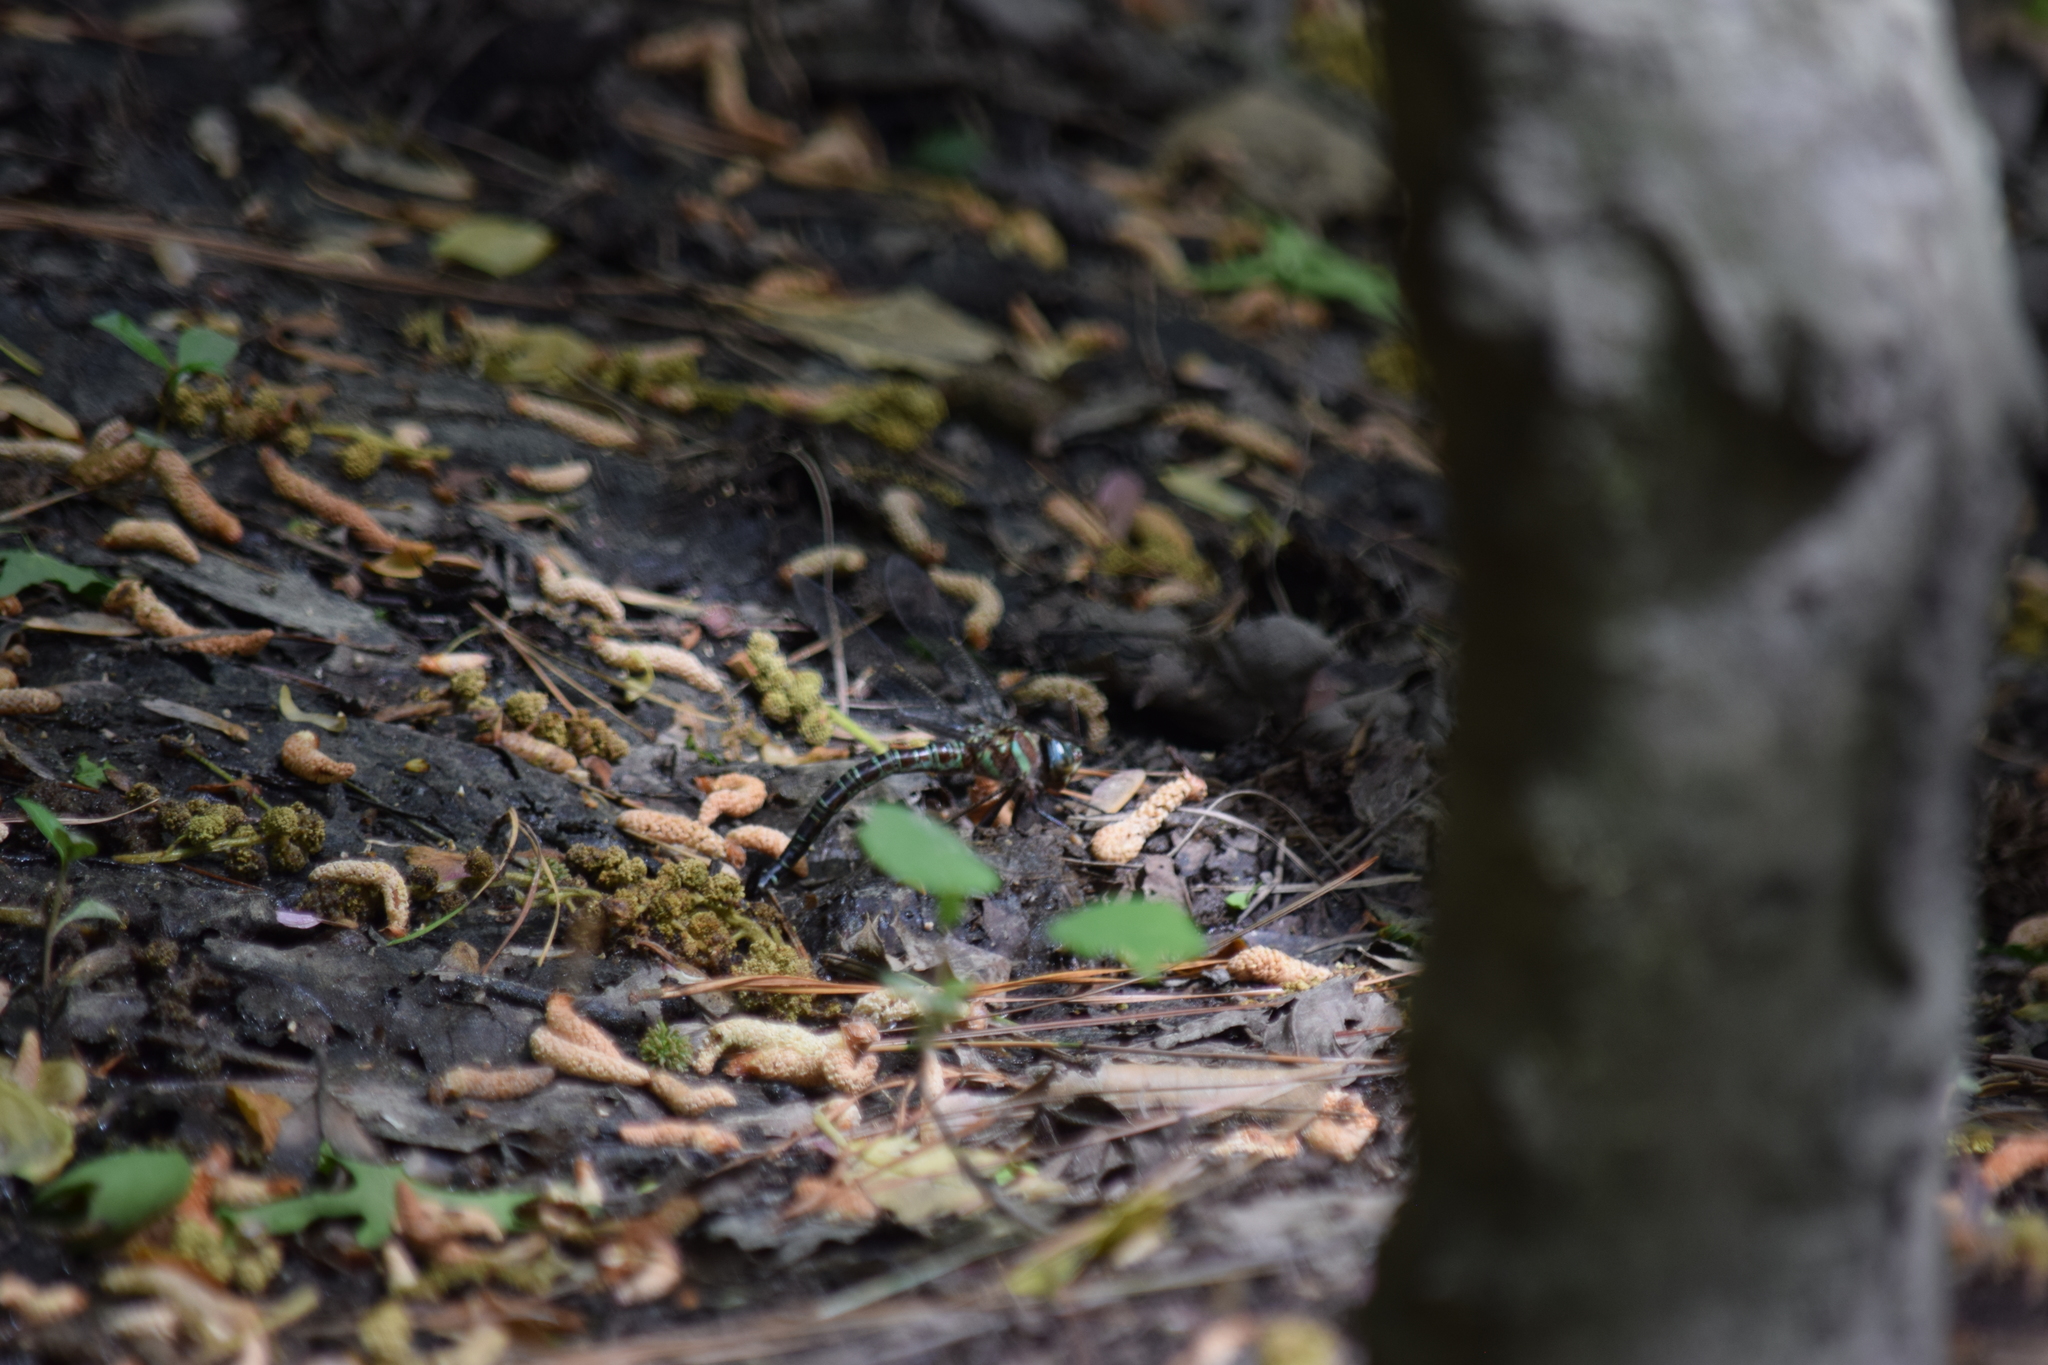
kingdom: Animalia
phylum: Arthropoda
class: Insecta
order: Odonata
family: Aeshnidae
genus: Epiaeschna
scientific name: Epiaeschna heros
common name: Swamp darner
